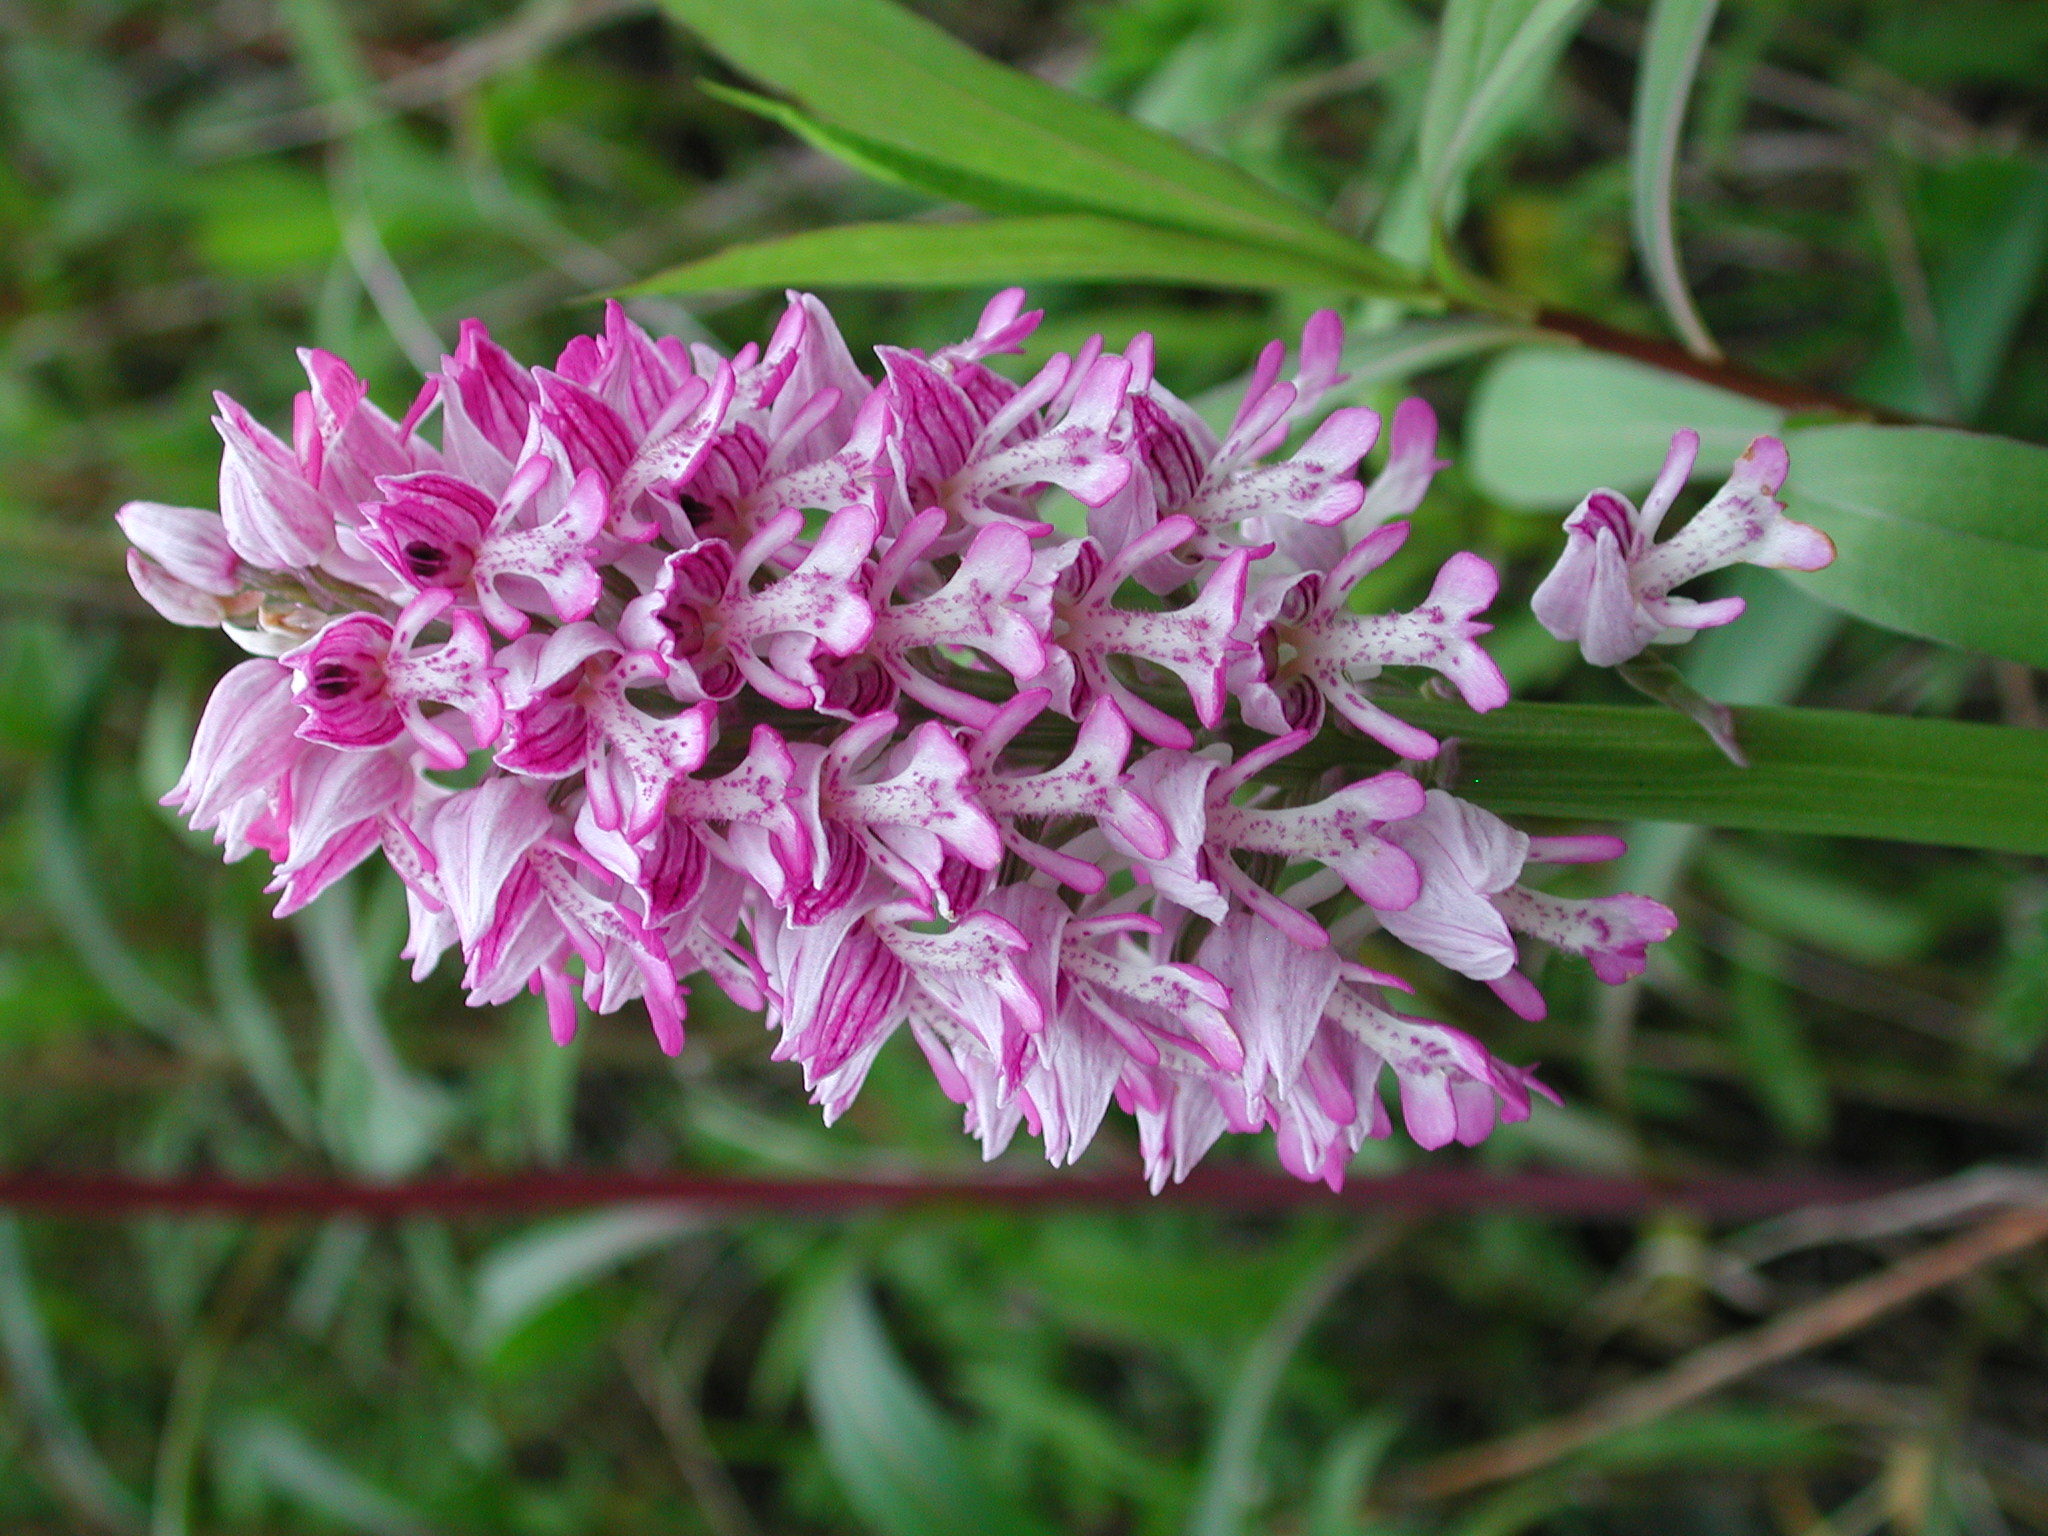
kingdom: Plantae
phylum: Tracheophyta
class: Liliopsida
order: Asparagales
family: Orchidaceae
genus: Orchis
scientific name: Orchis militaris
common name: Military orchid
